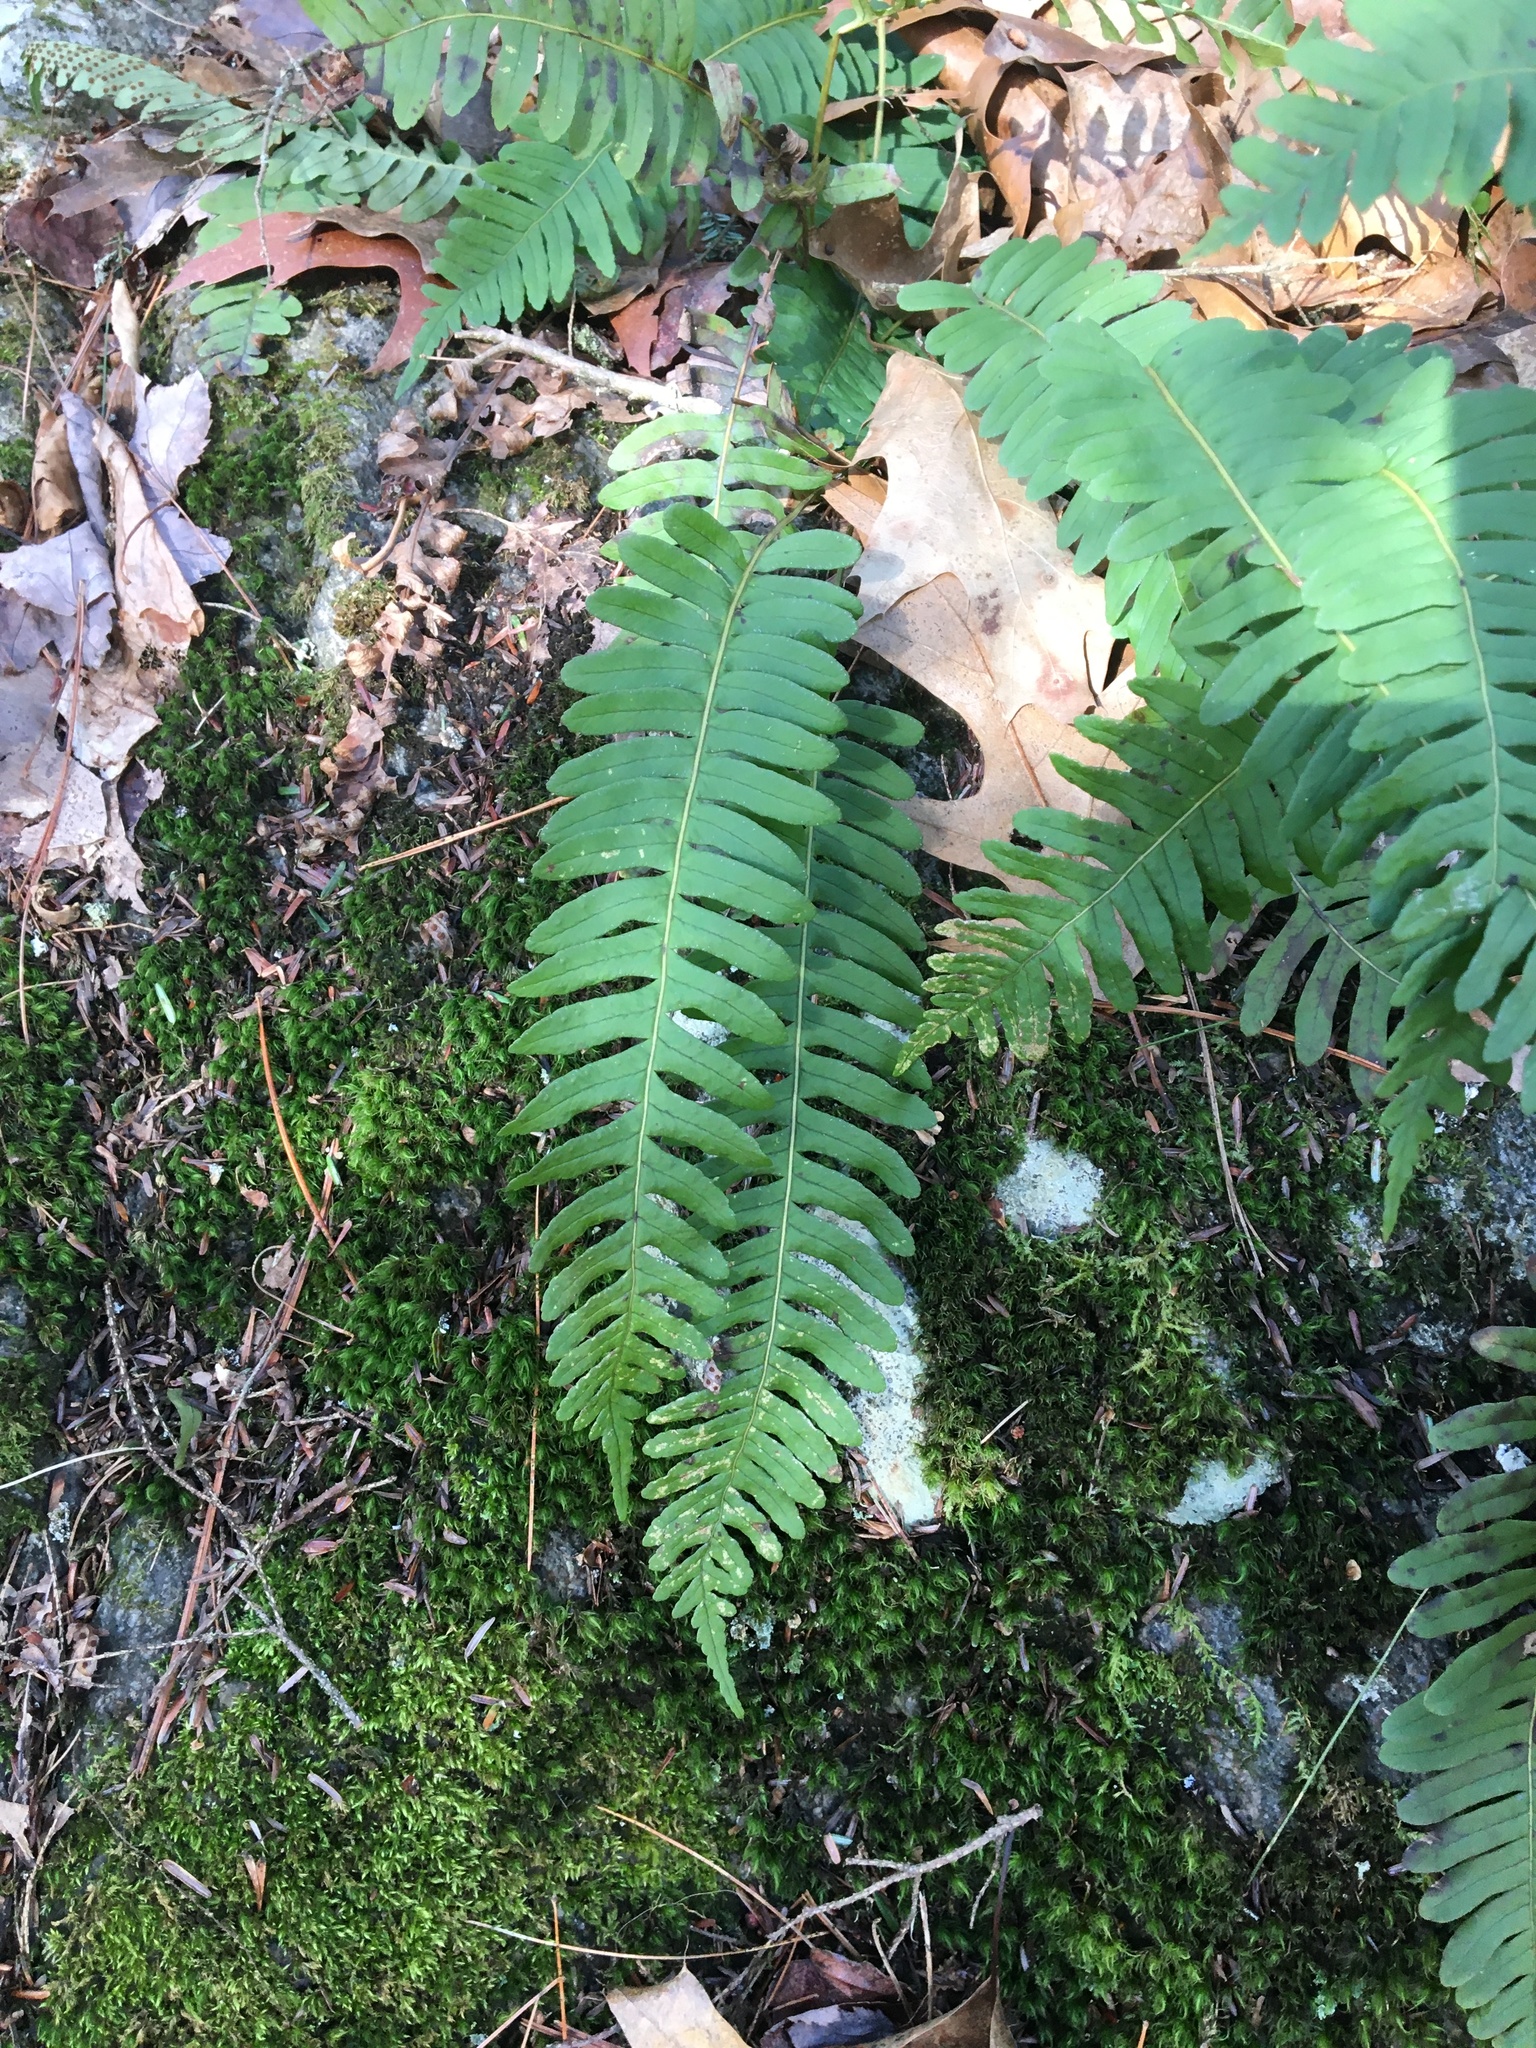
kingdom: Plantae
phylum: Tracheophyta
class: Polypodiopsida
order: Polypodiales
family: Polypodiaceae
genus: Polypodium
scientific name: Polypodium
